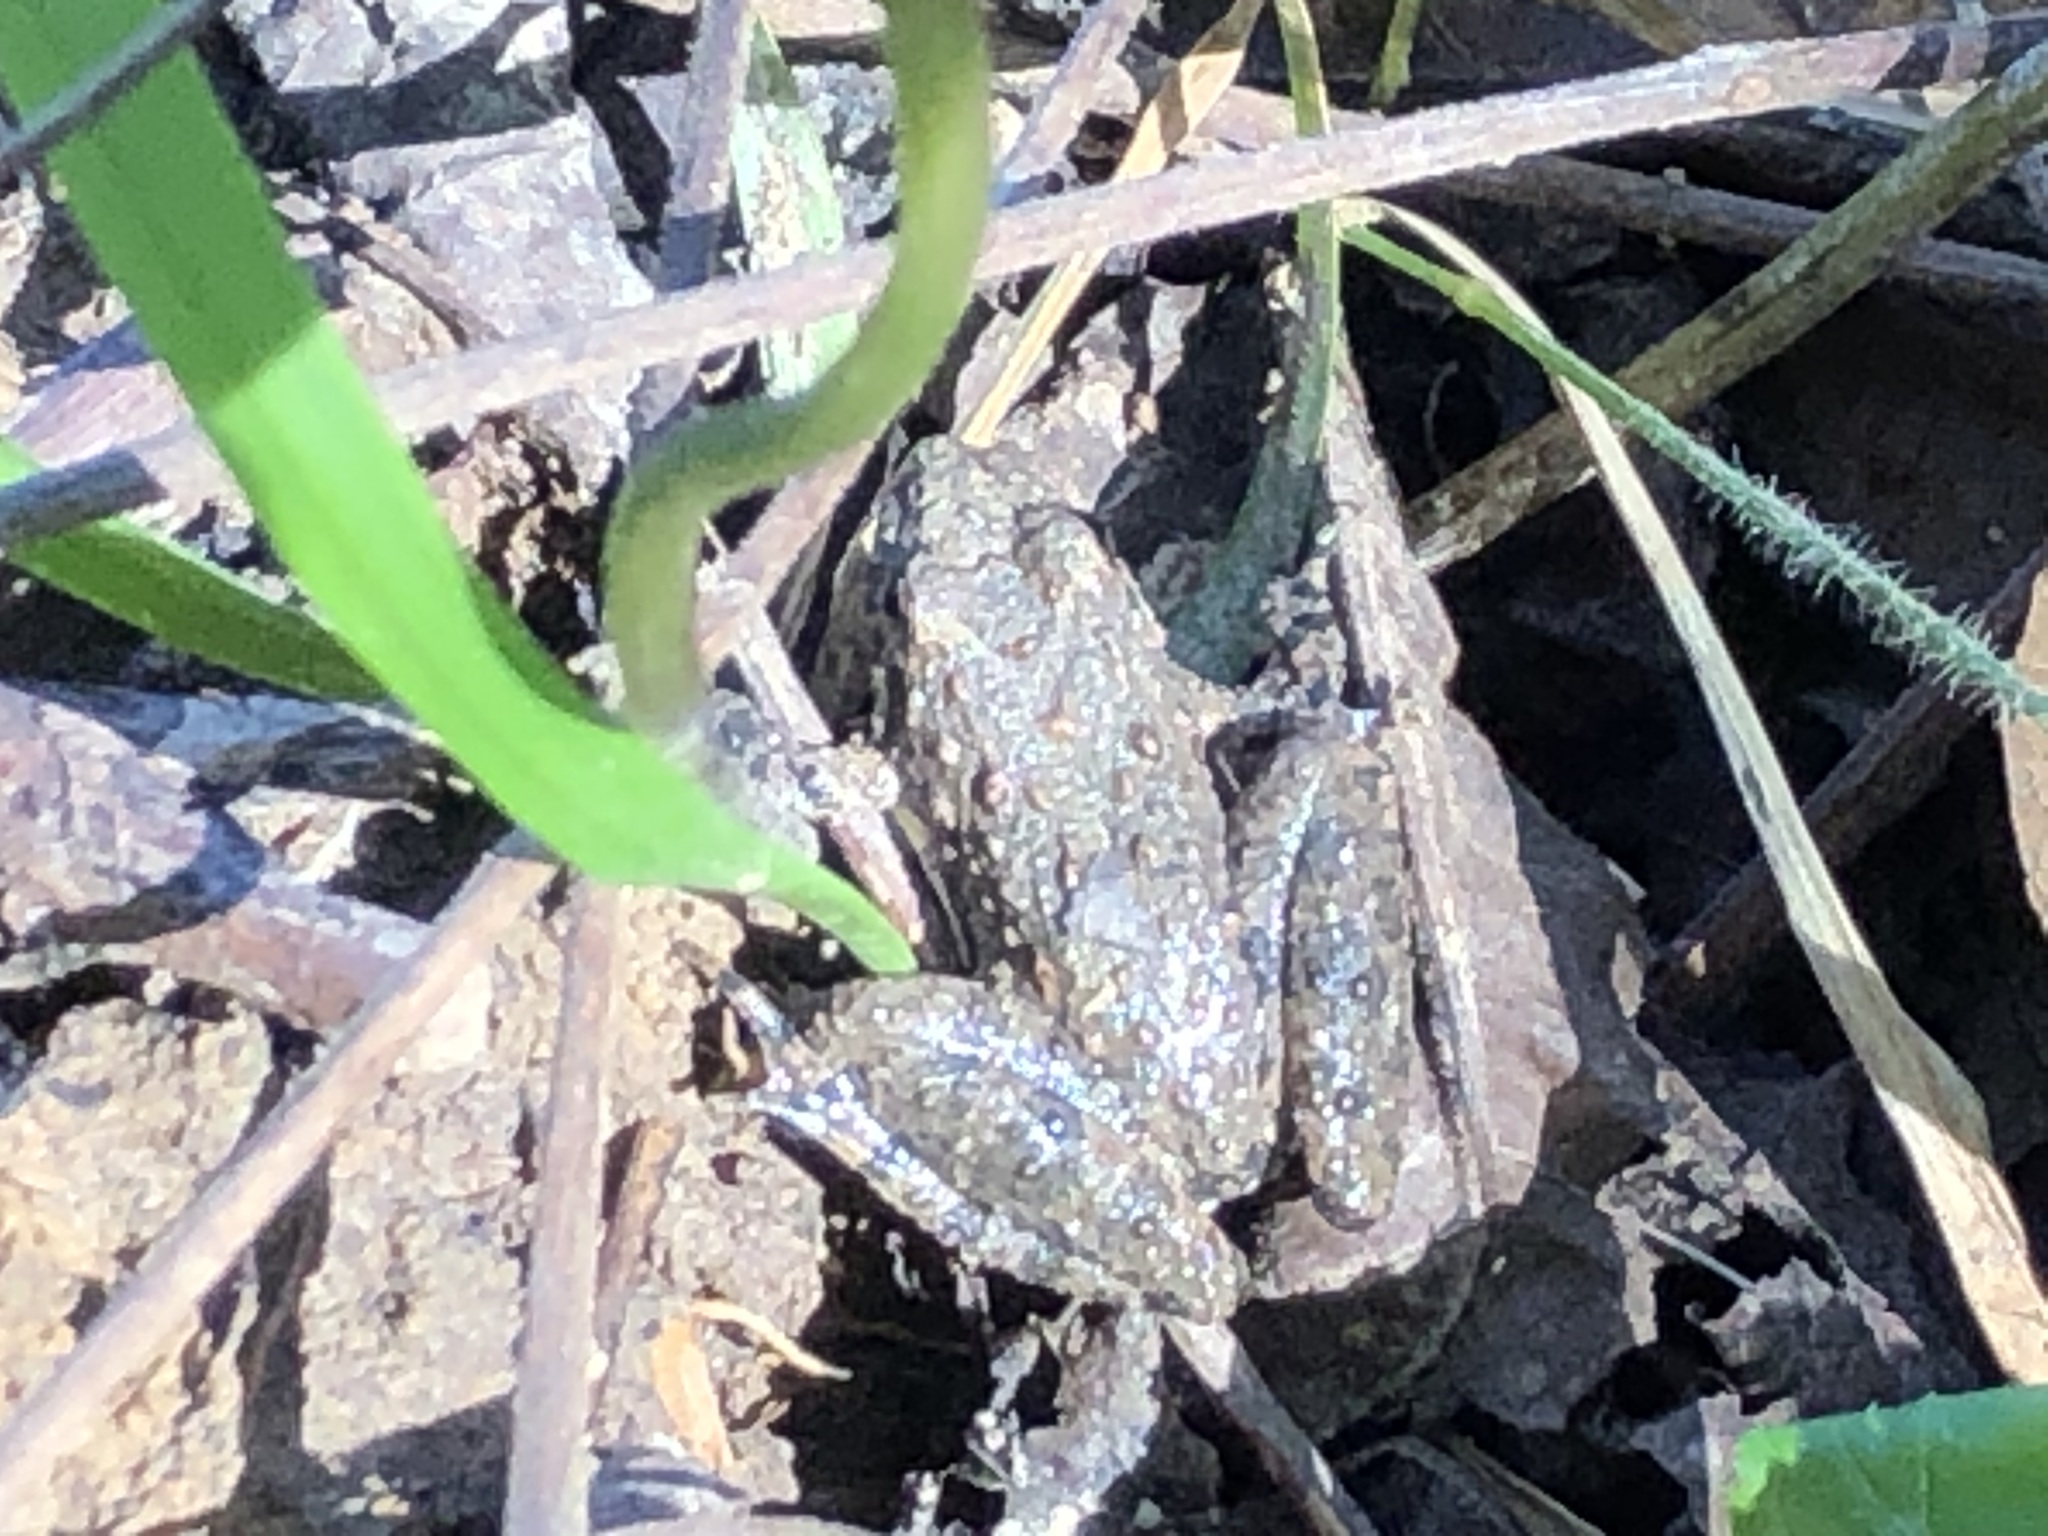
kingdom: Animalia
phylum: Chordata
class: Amphibia
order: Anura
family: Hylidae
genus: Acris
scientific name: Acris blanchardi
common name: Blanchard's cricket frog
